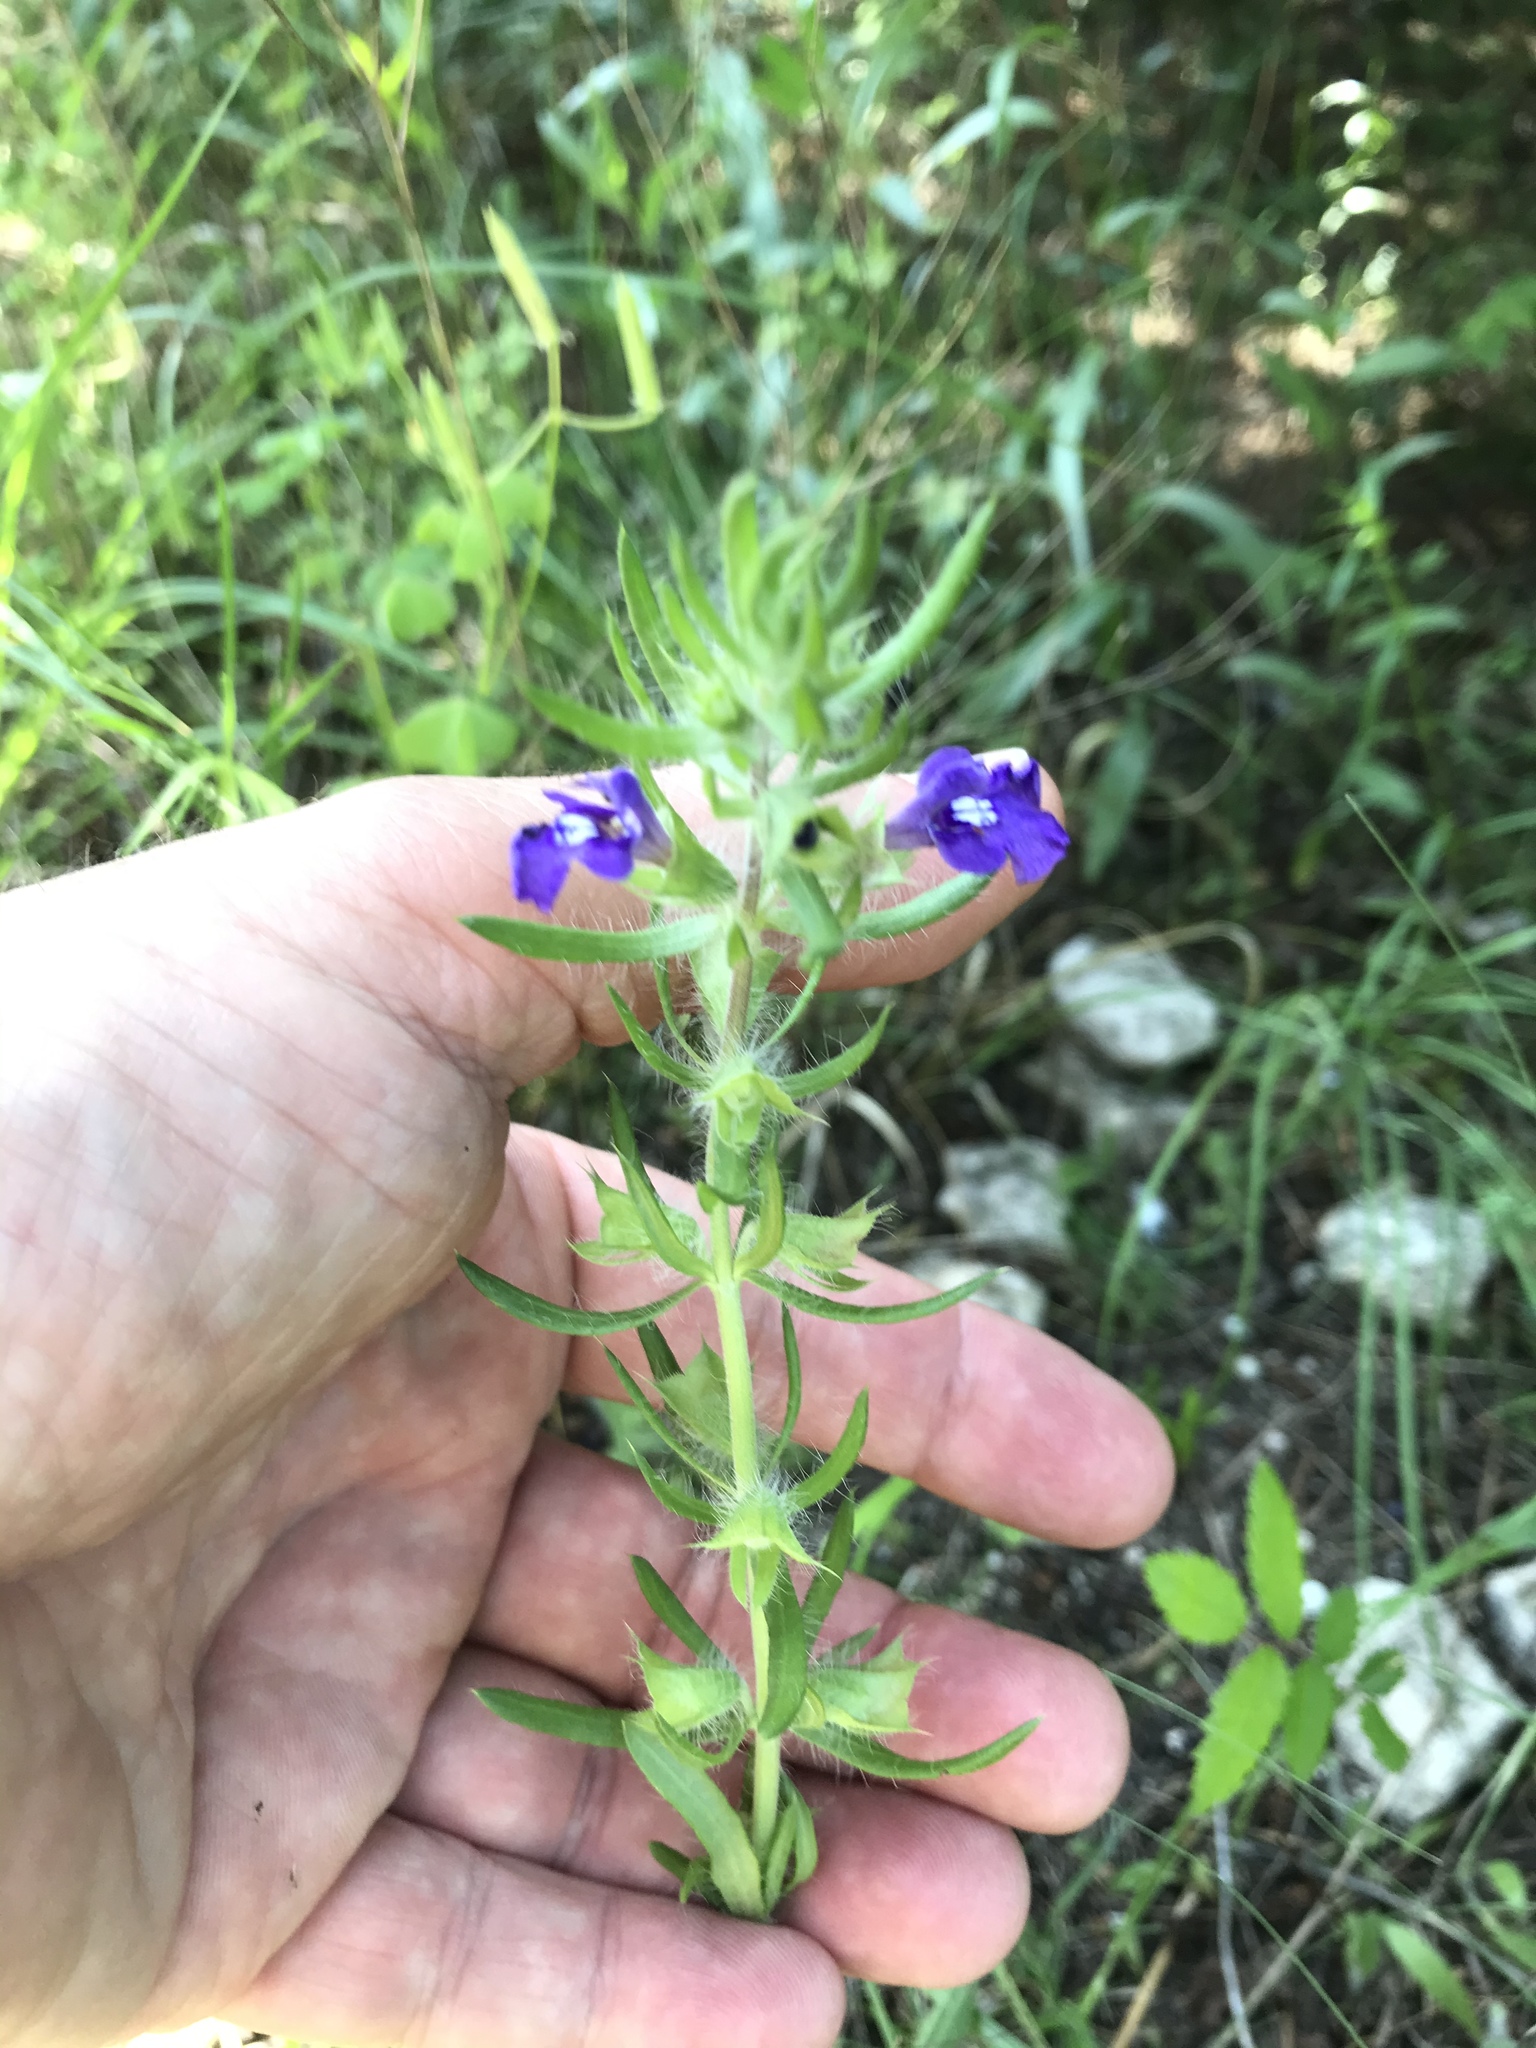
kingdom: Plantae
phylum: Tracheophyta
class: Magnoliopsida
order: Lamiales
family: Lamiaceae
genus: Salvia
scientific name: Salvia texana
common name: Texas sage
